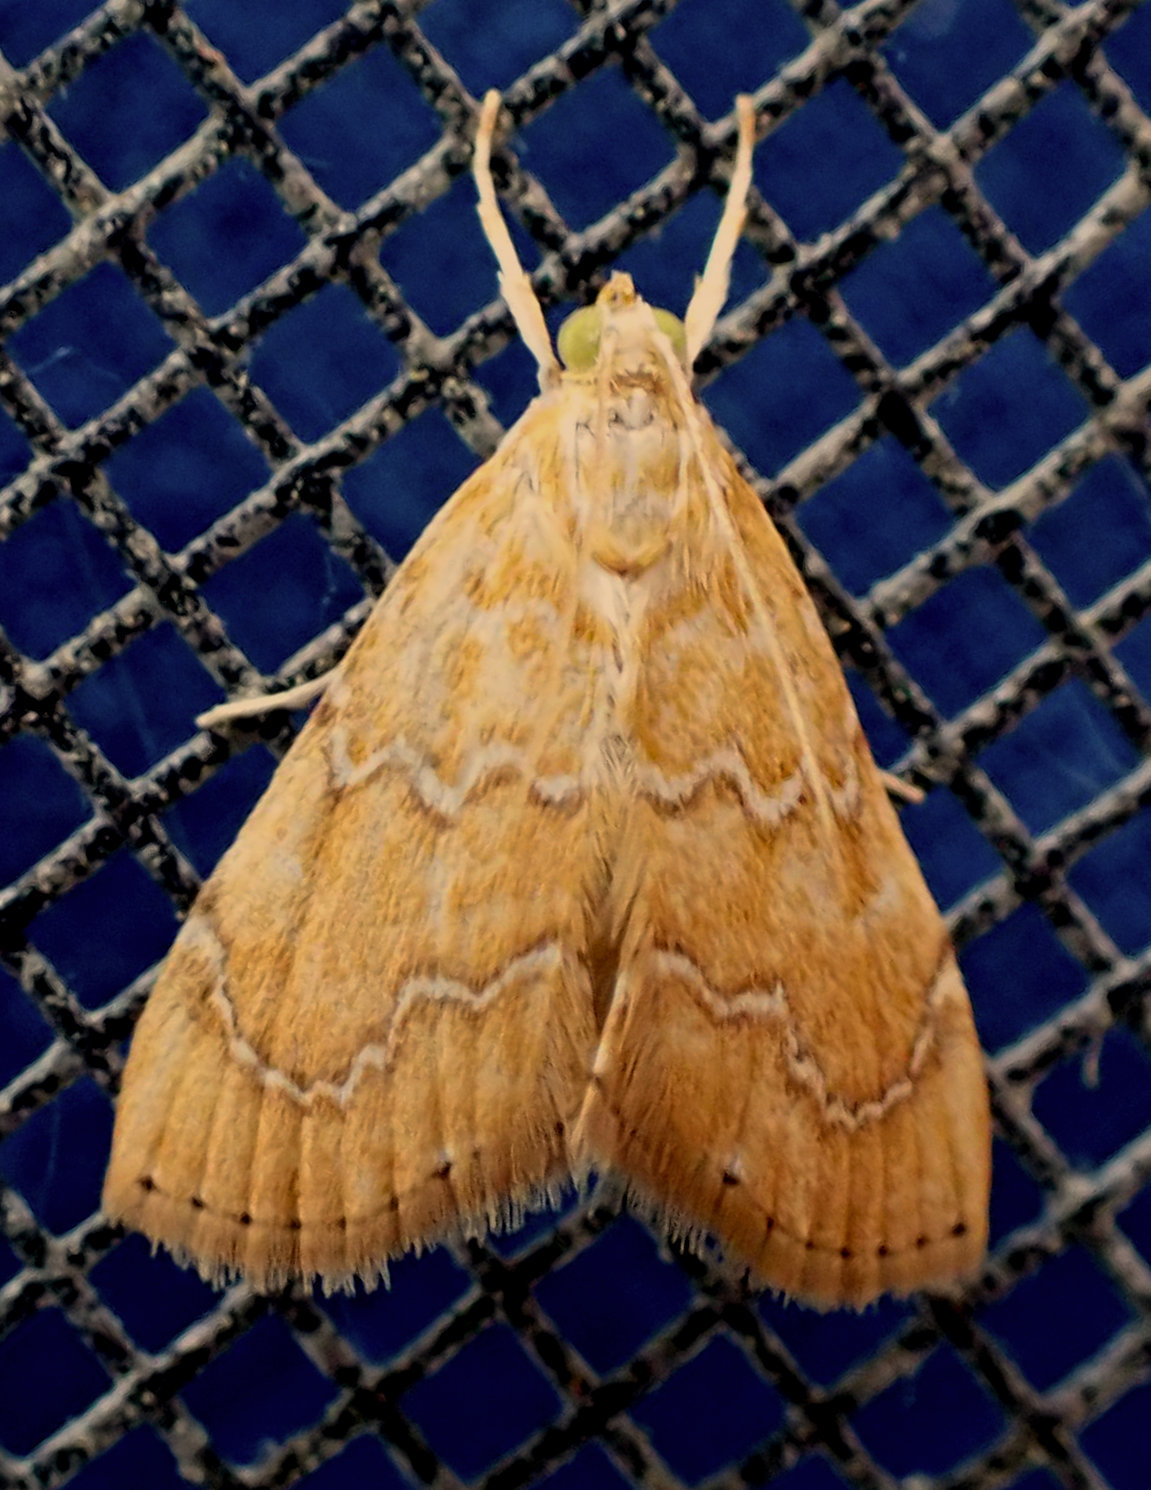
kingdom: Animalia
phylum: Arthropoda
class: Insecta
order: Lepidoptera
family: Crambidae
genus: Glaphyria
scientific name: Glaphyria sesquistrialis
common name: White-roped glaphyria
